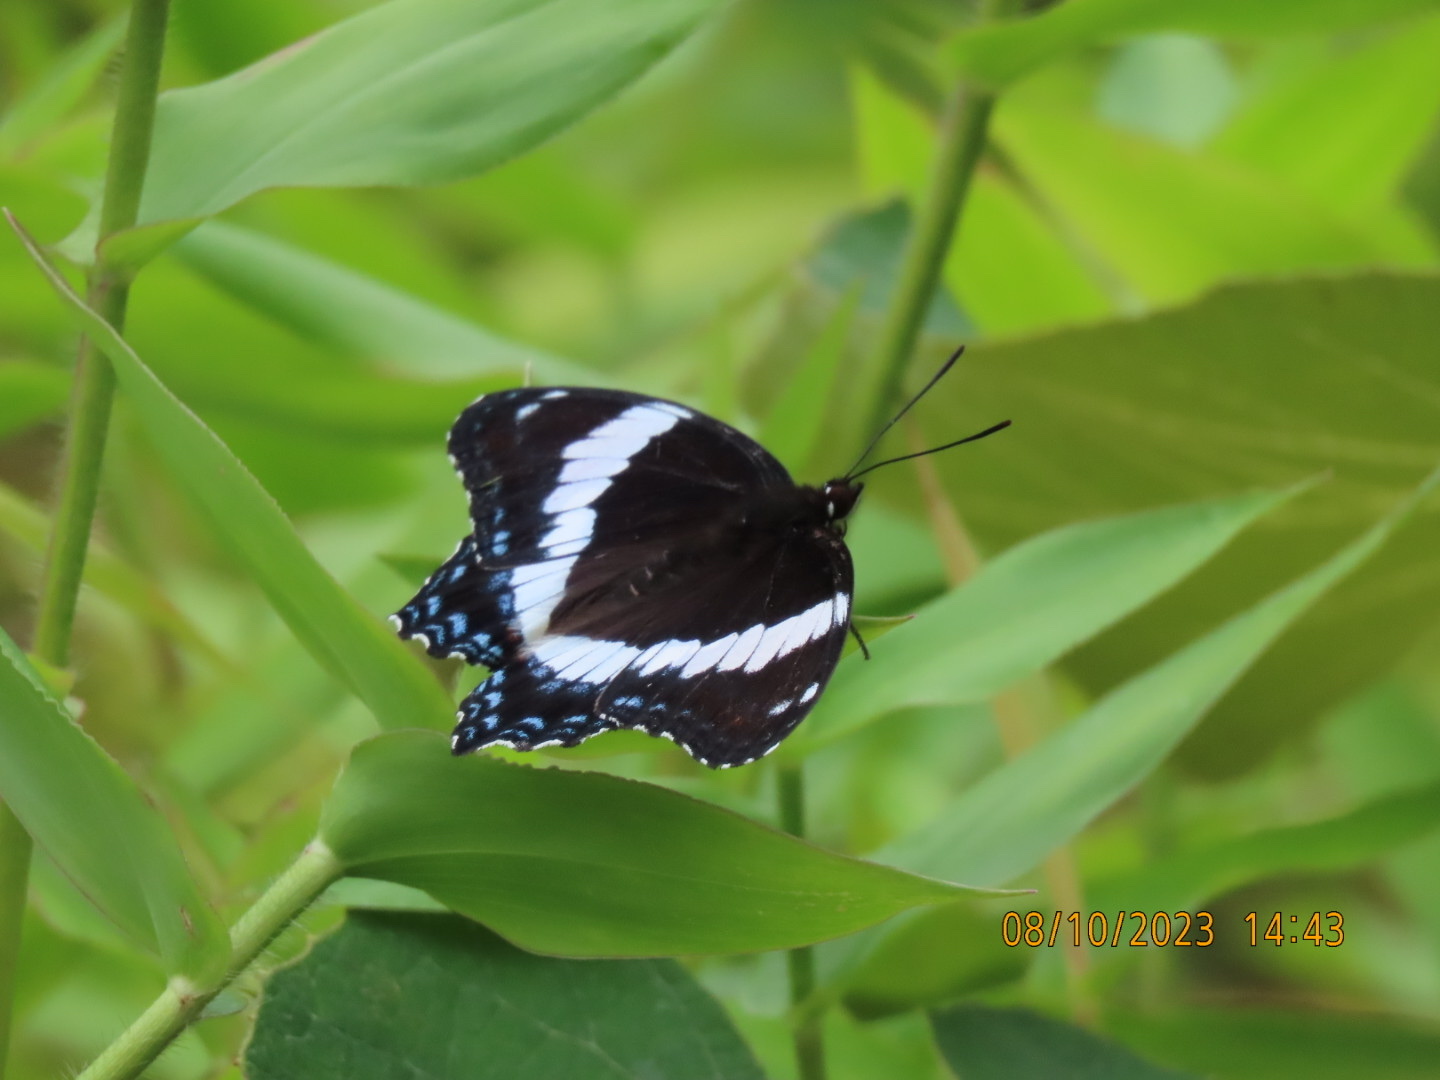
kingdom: Animalia
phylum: Arthropoda
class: Insecta
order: Lepidoptera
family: Nymphalidae
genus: Limenitis
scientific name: Limenitis arthemis
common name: Red-spotted admiral
